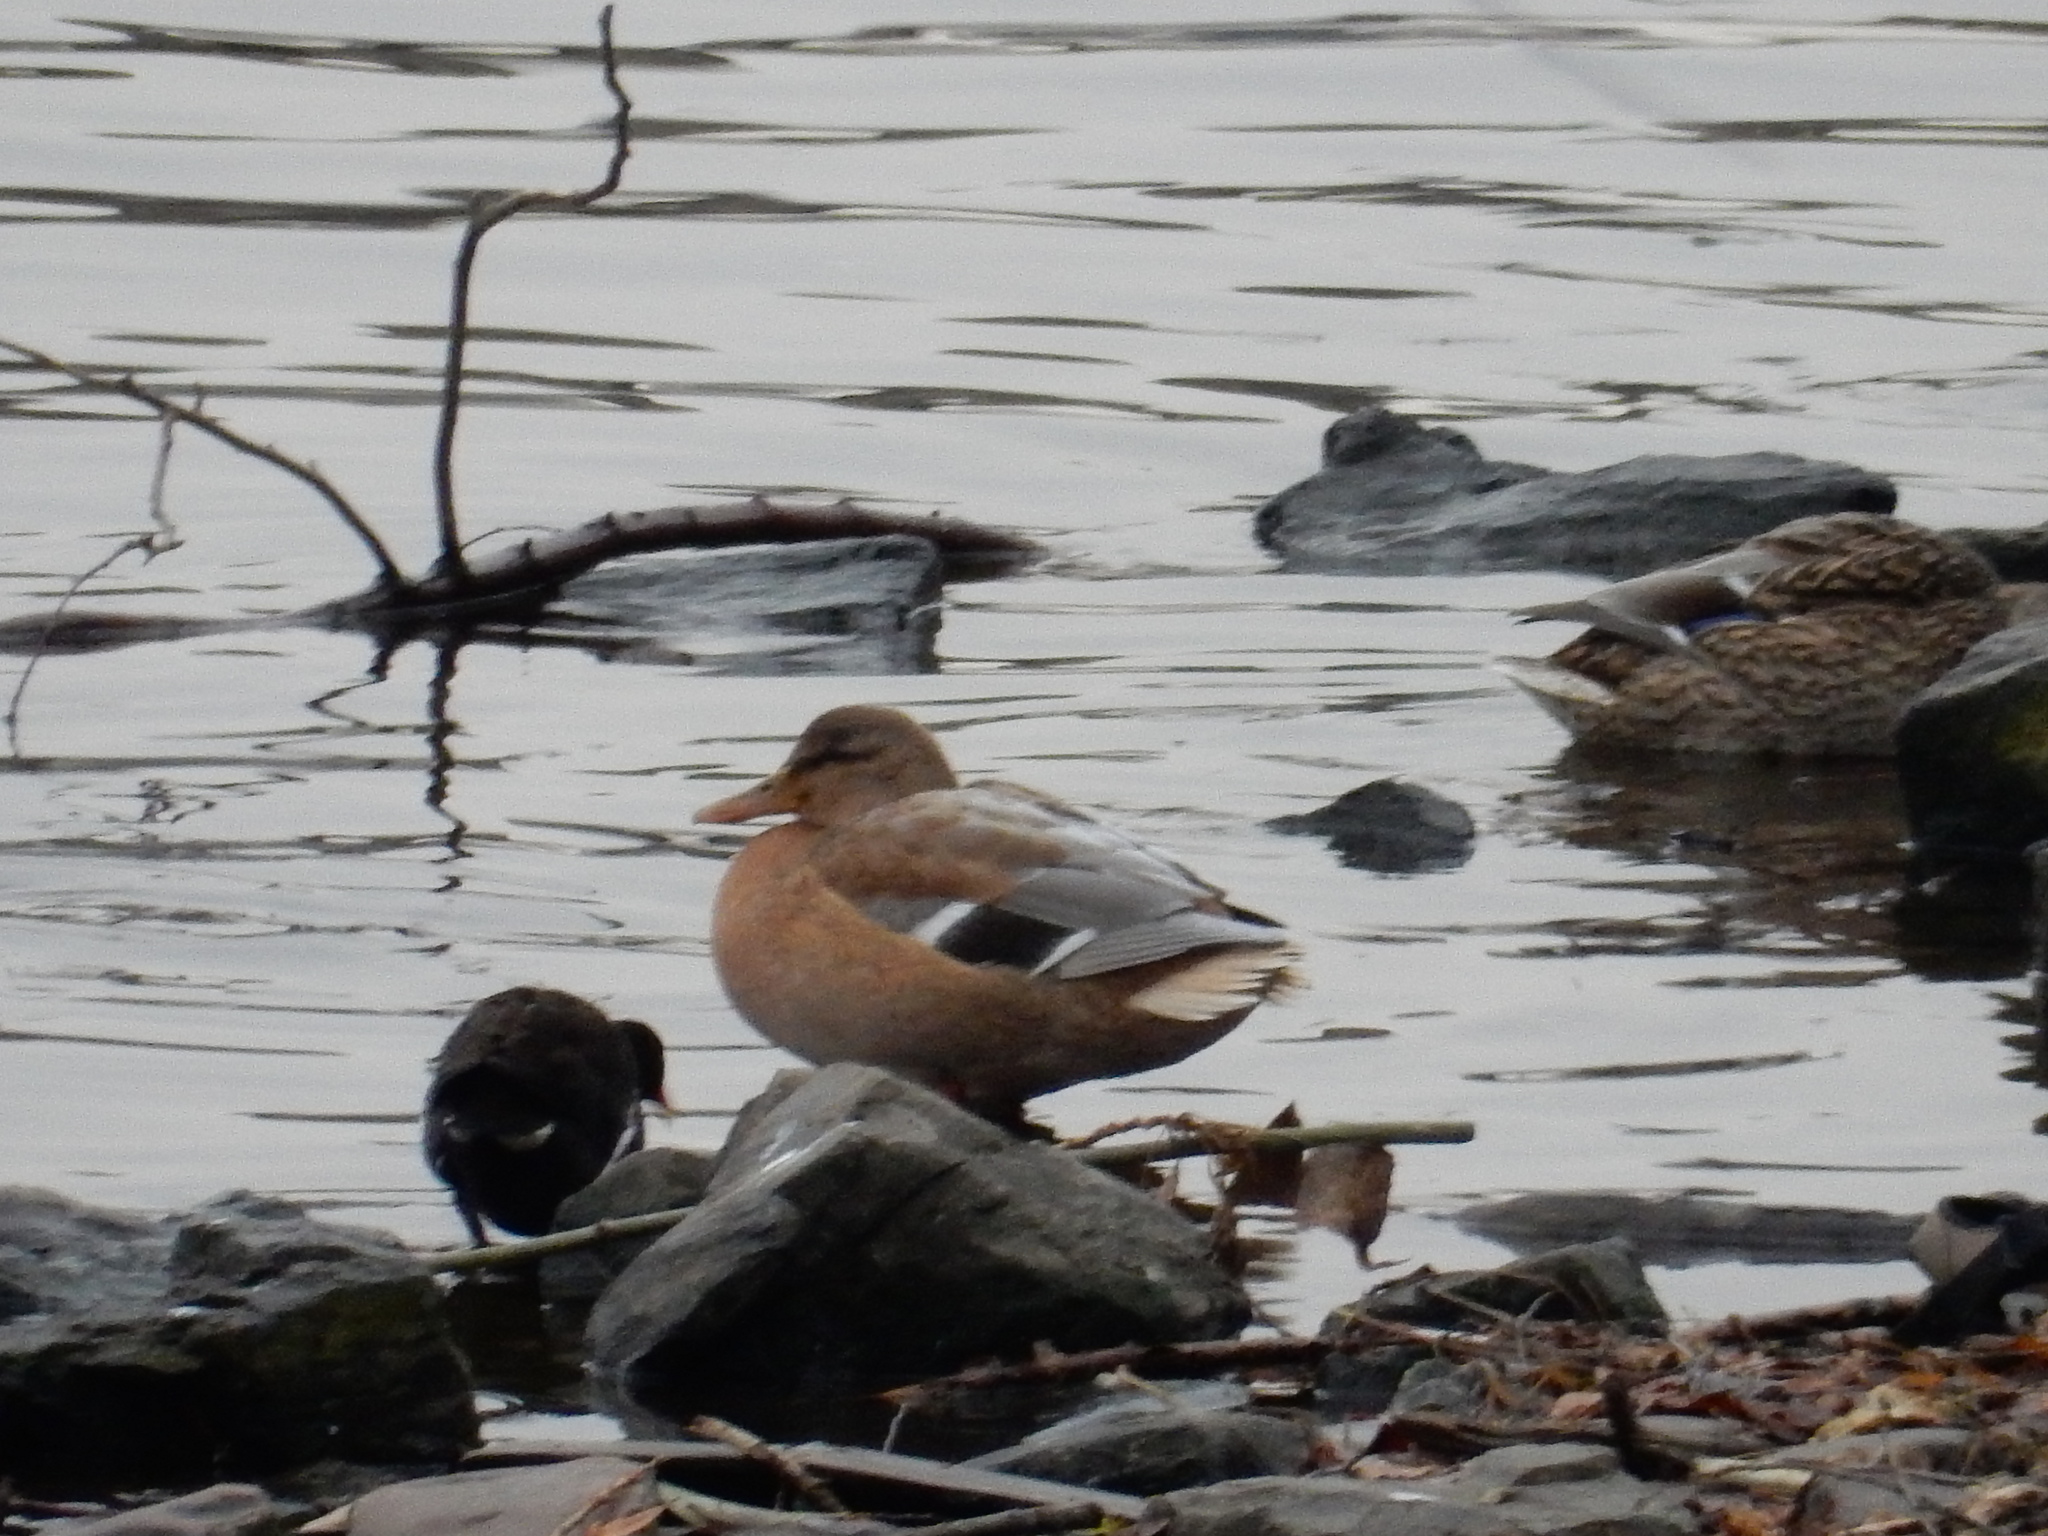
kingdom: Animalia
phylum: Chordata
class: Aves
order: Anseriformes
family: Anatidae
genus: Anas
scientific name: Anas platyrhynchos
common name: Mallard
